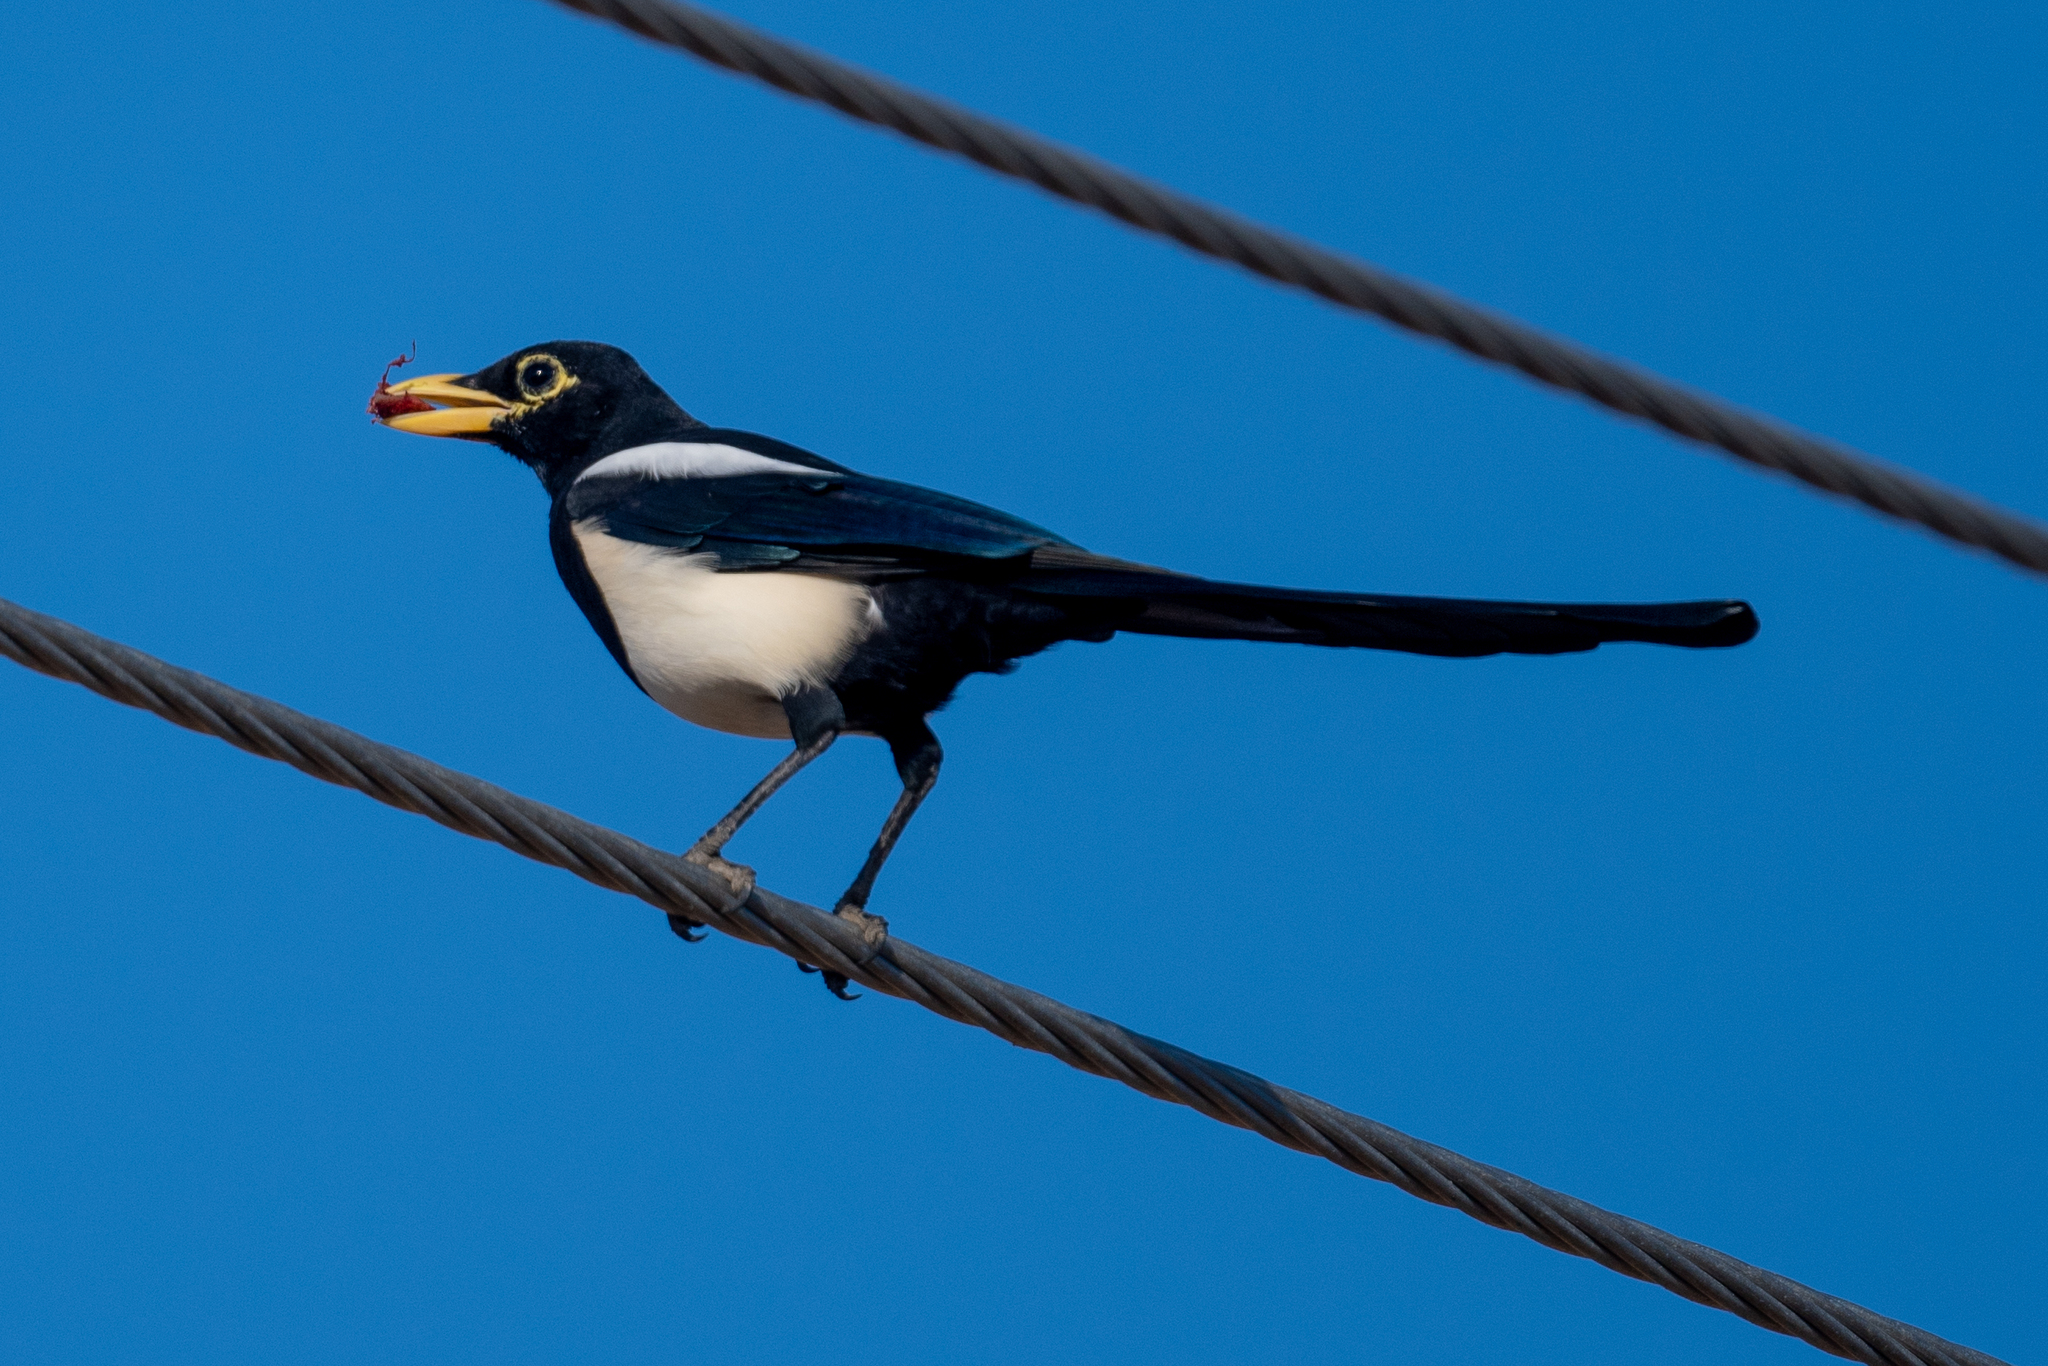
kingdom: Animalia
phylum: Chordata
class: Aves
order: Passeriformes
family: Corvidae
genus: Pica
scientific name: Pica nuttalli
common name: Yellow-billed magpie
